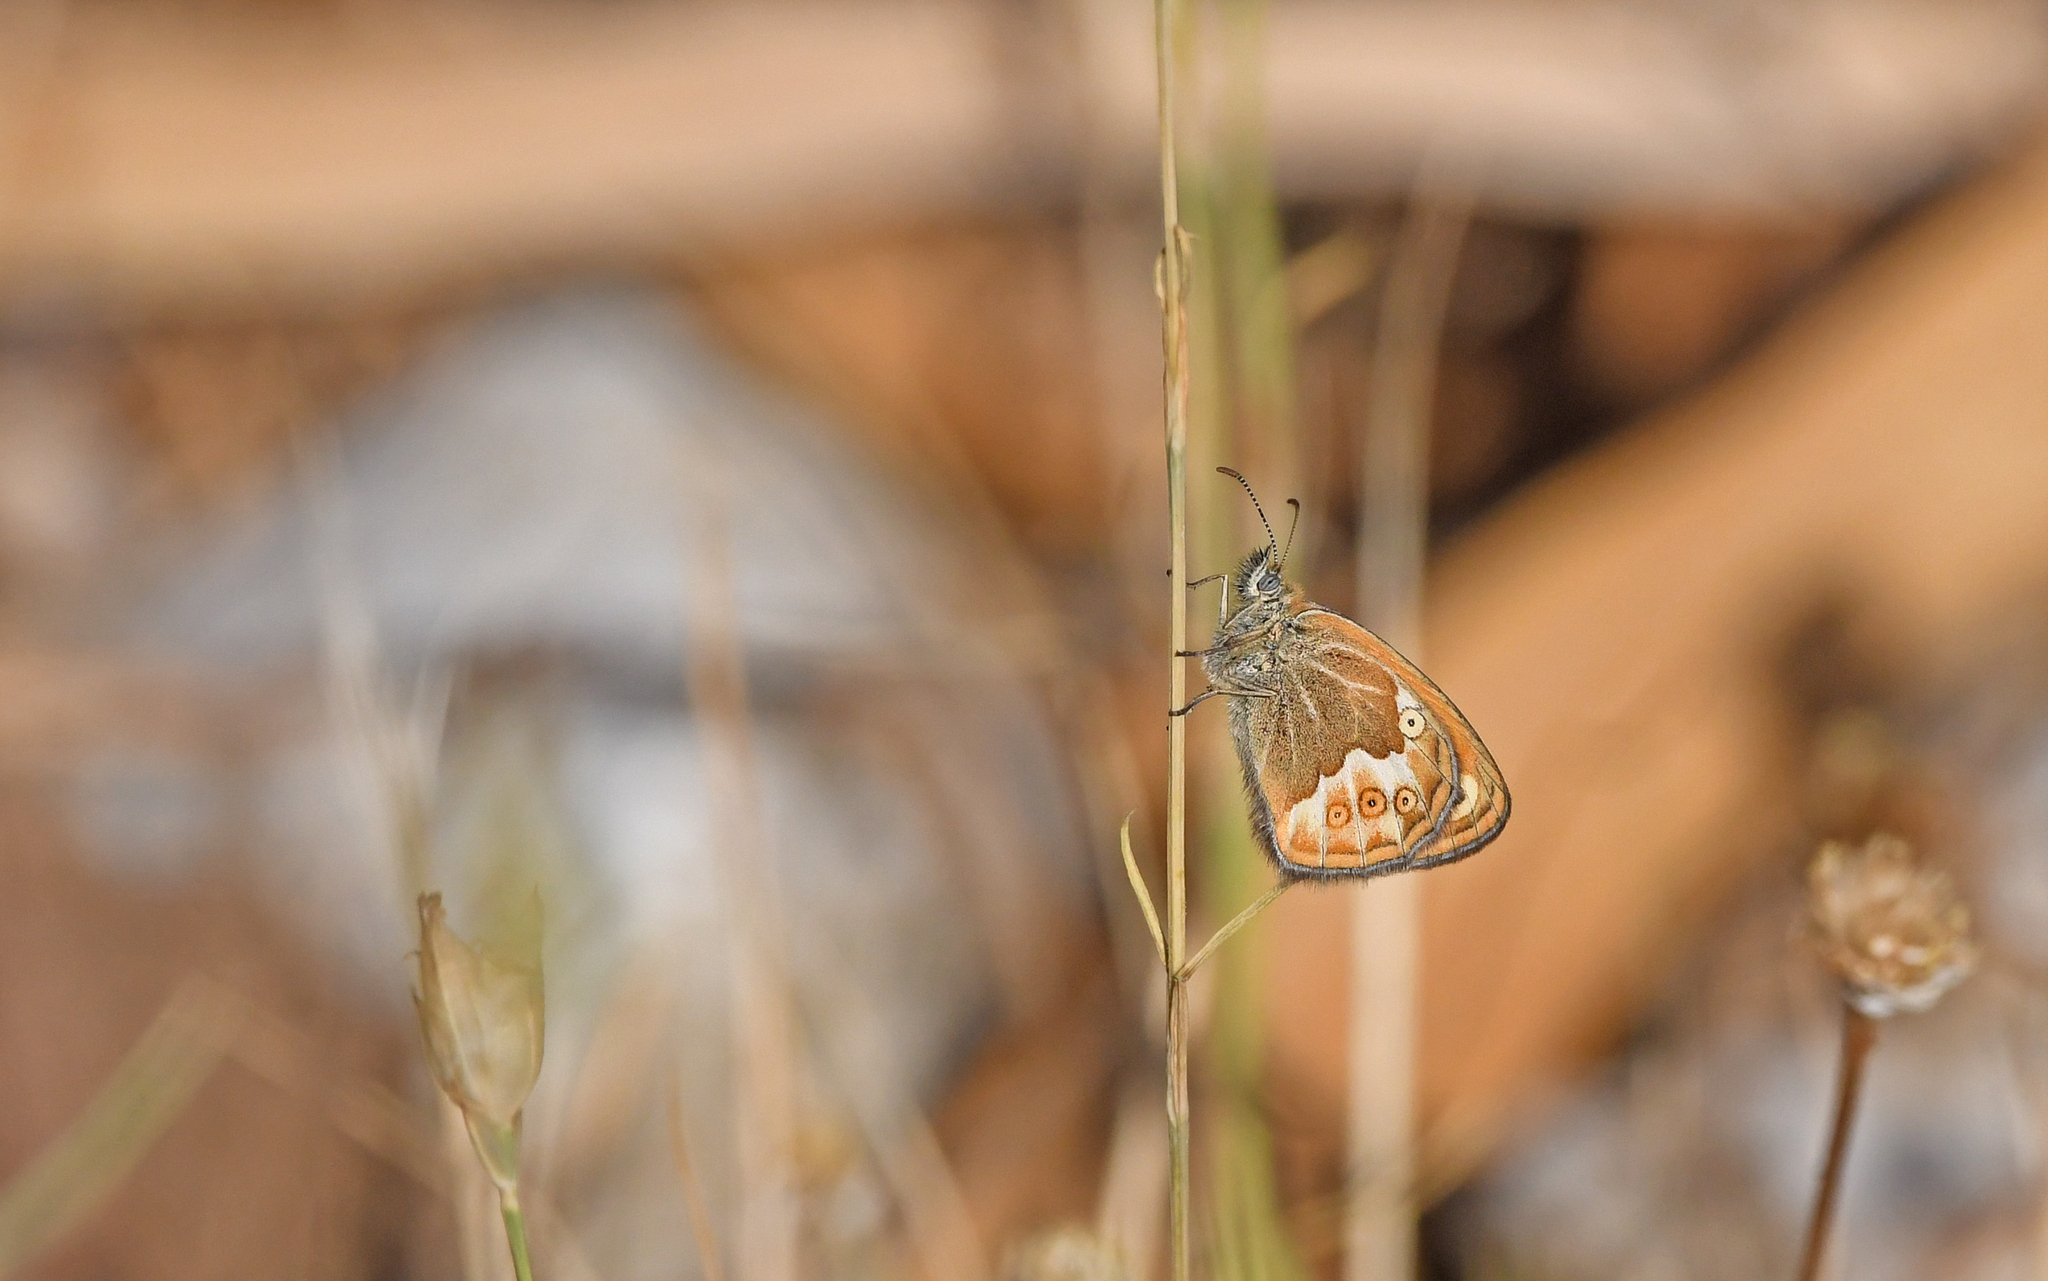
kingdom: Animalia
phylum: Arthropoda
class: Insecta
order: Lepidoptera
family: Nymphalidae
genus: Coenonympha
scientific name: Coenonympha corinna
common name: Corsican heath
